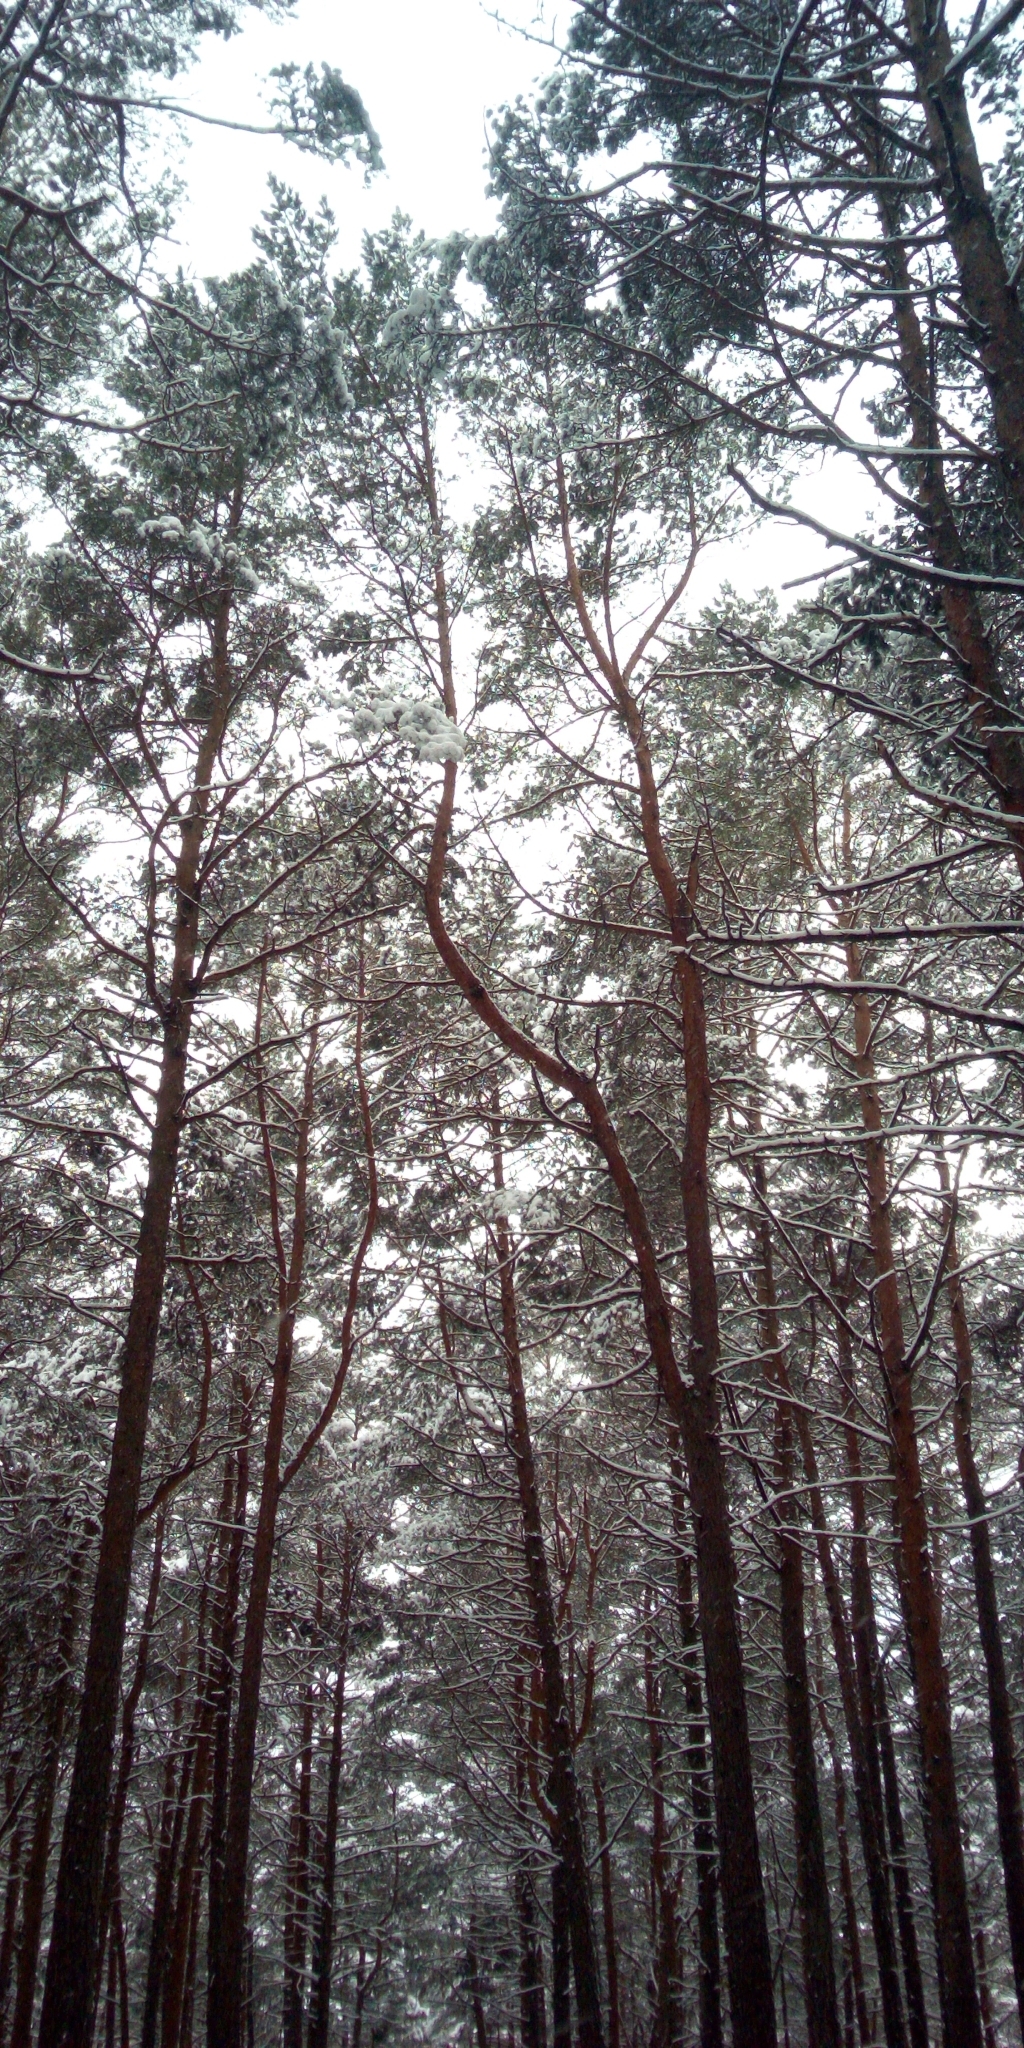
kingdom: Plantae
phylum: Tracheophyta
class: Pinopsida
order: Pinales
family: Pinaceae
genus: Pinus
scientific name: Pinus sylvestris
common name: Scots pine
